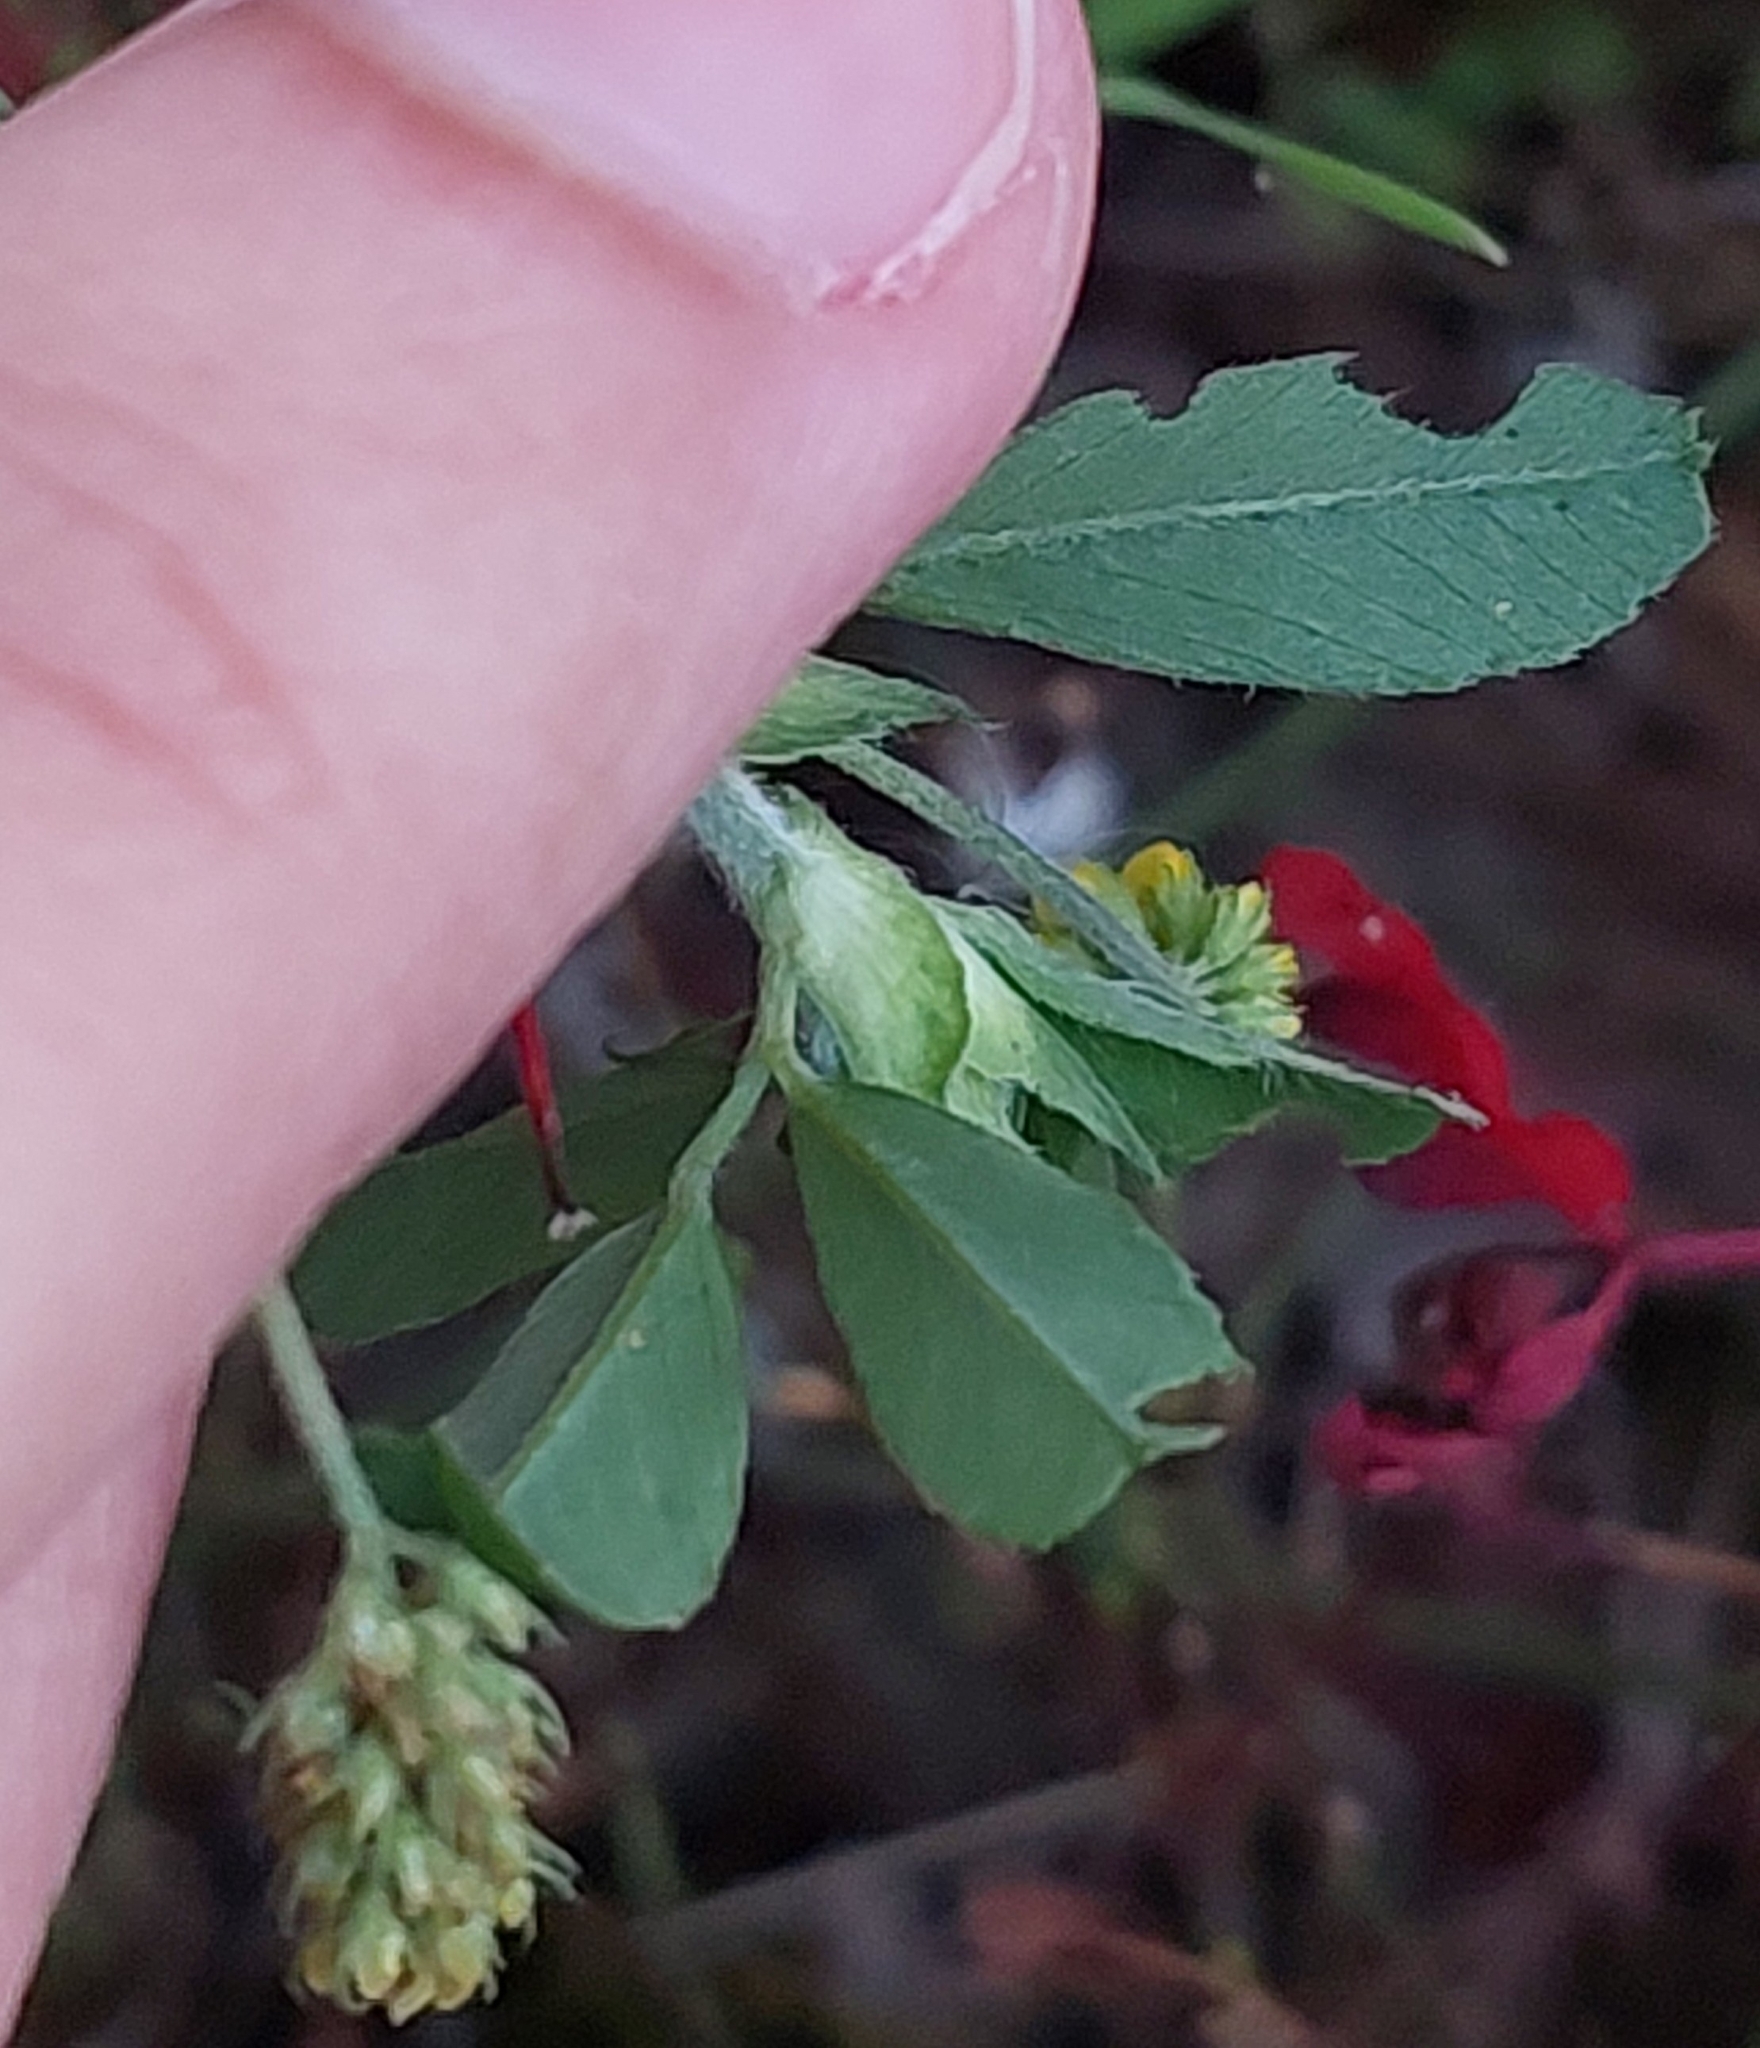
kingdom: Plantae
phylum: Tracheophyta
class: Magnoliopsida
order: Fabales
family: Fabaceae
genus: Medicago
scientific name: Medicago lupulina
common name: Black medick
